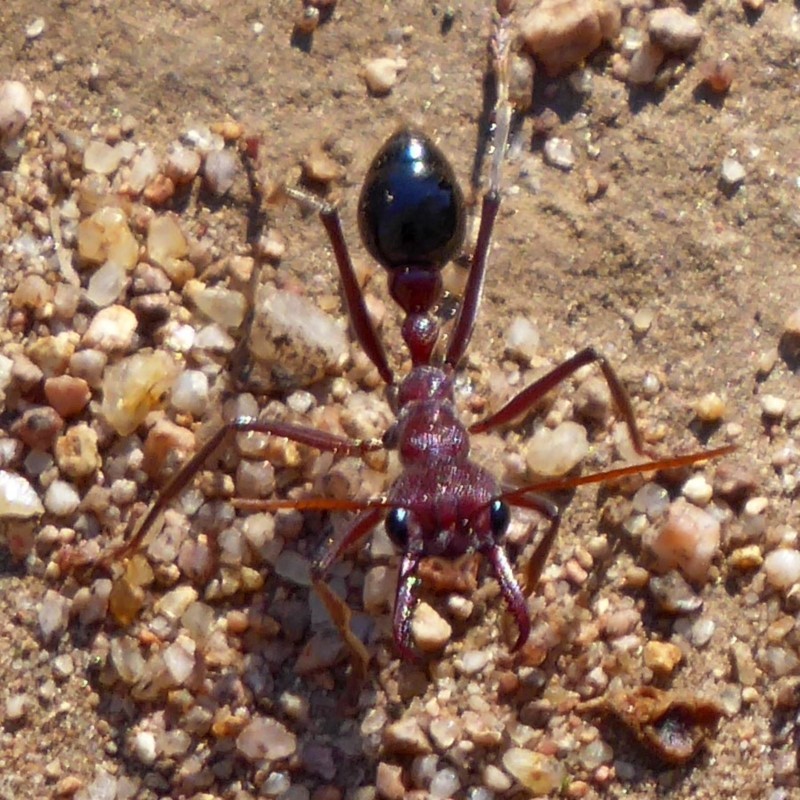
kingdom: Animalia
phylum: Arthropoda
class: Insecta
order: Hymenoptera
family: Formicidae
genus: Myrmecia
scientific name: Myrmecia simillima
